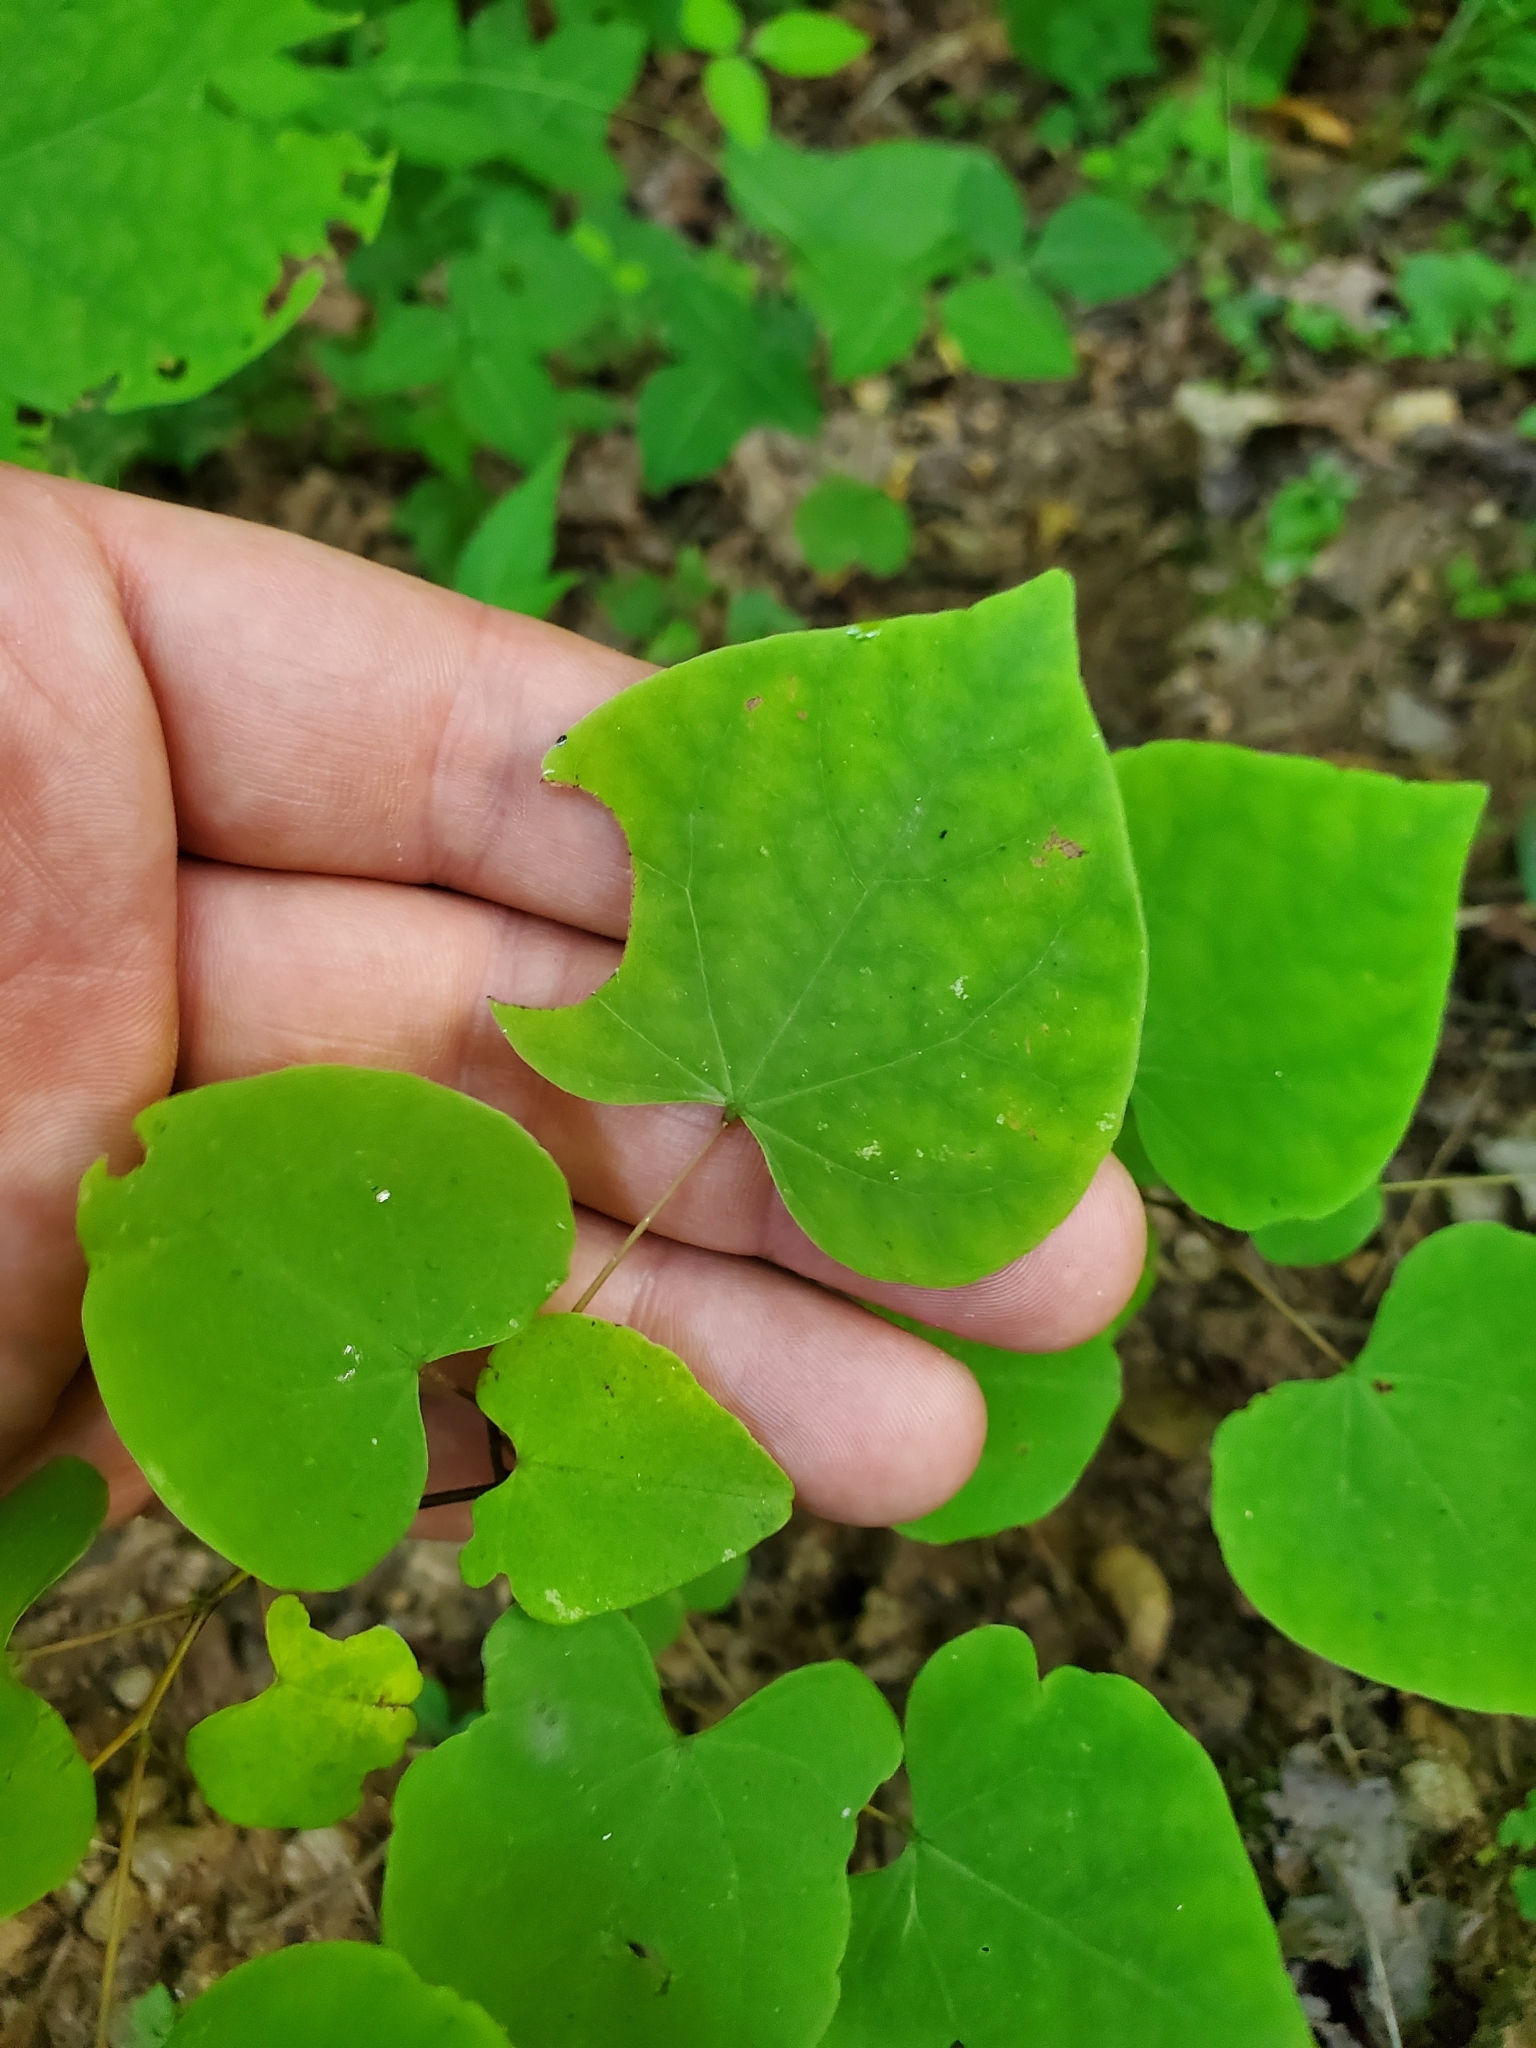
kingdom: Plantae
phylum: Tracheophyta
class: Magnoliopsida
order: Fabales
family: Fabaceae
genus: Cercis
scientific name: Cercis canadensis
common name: Eastern redbud
